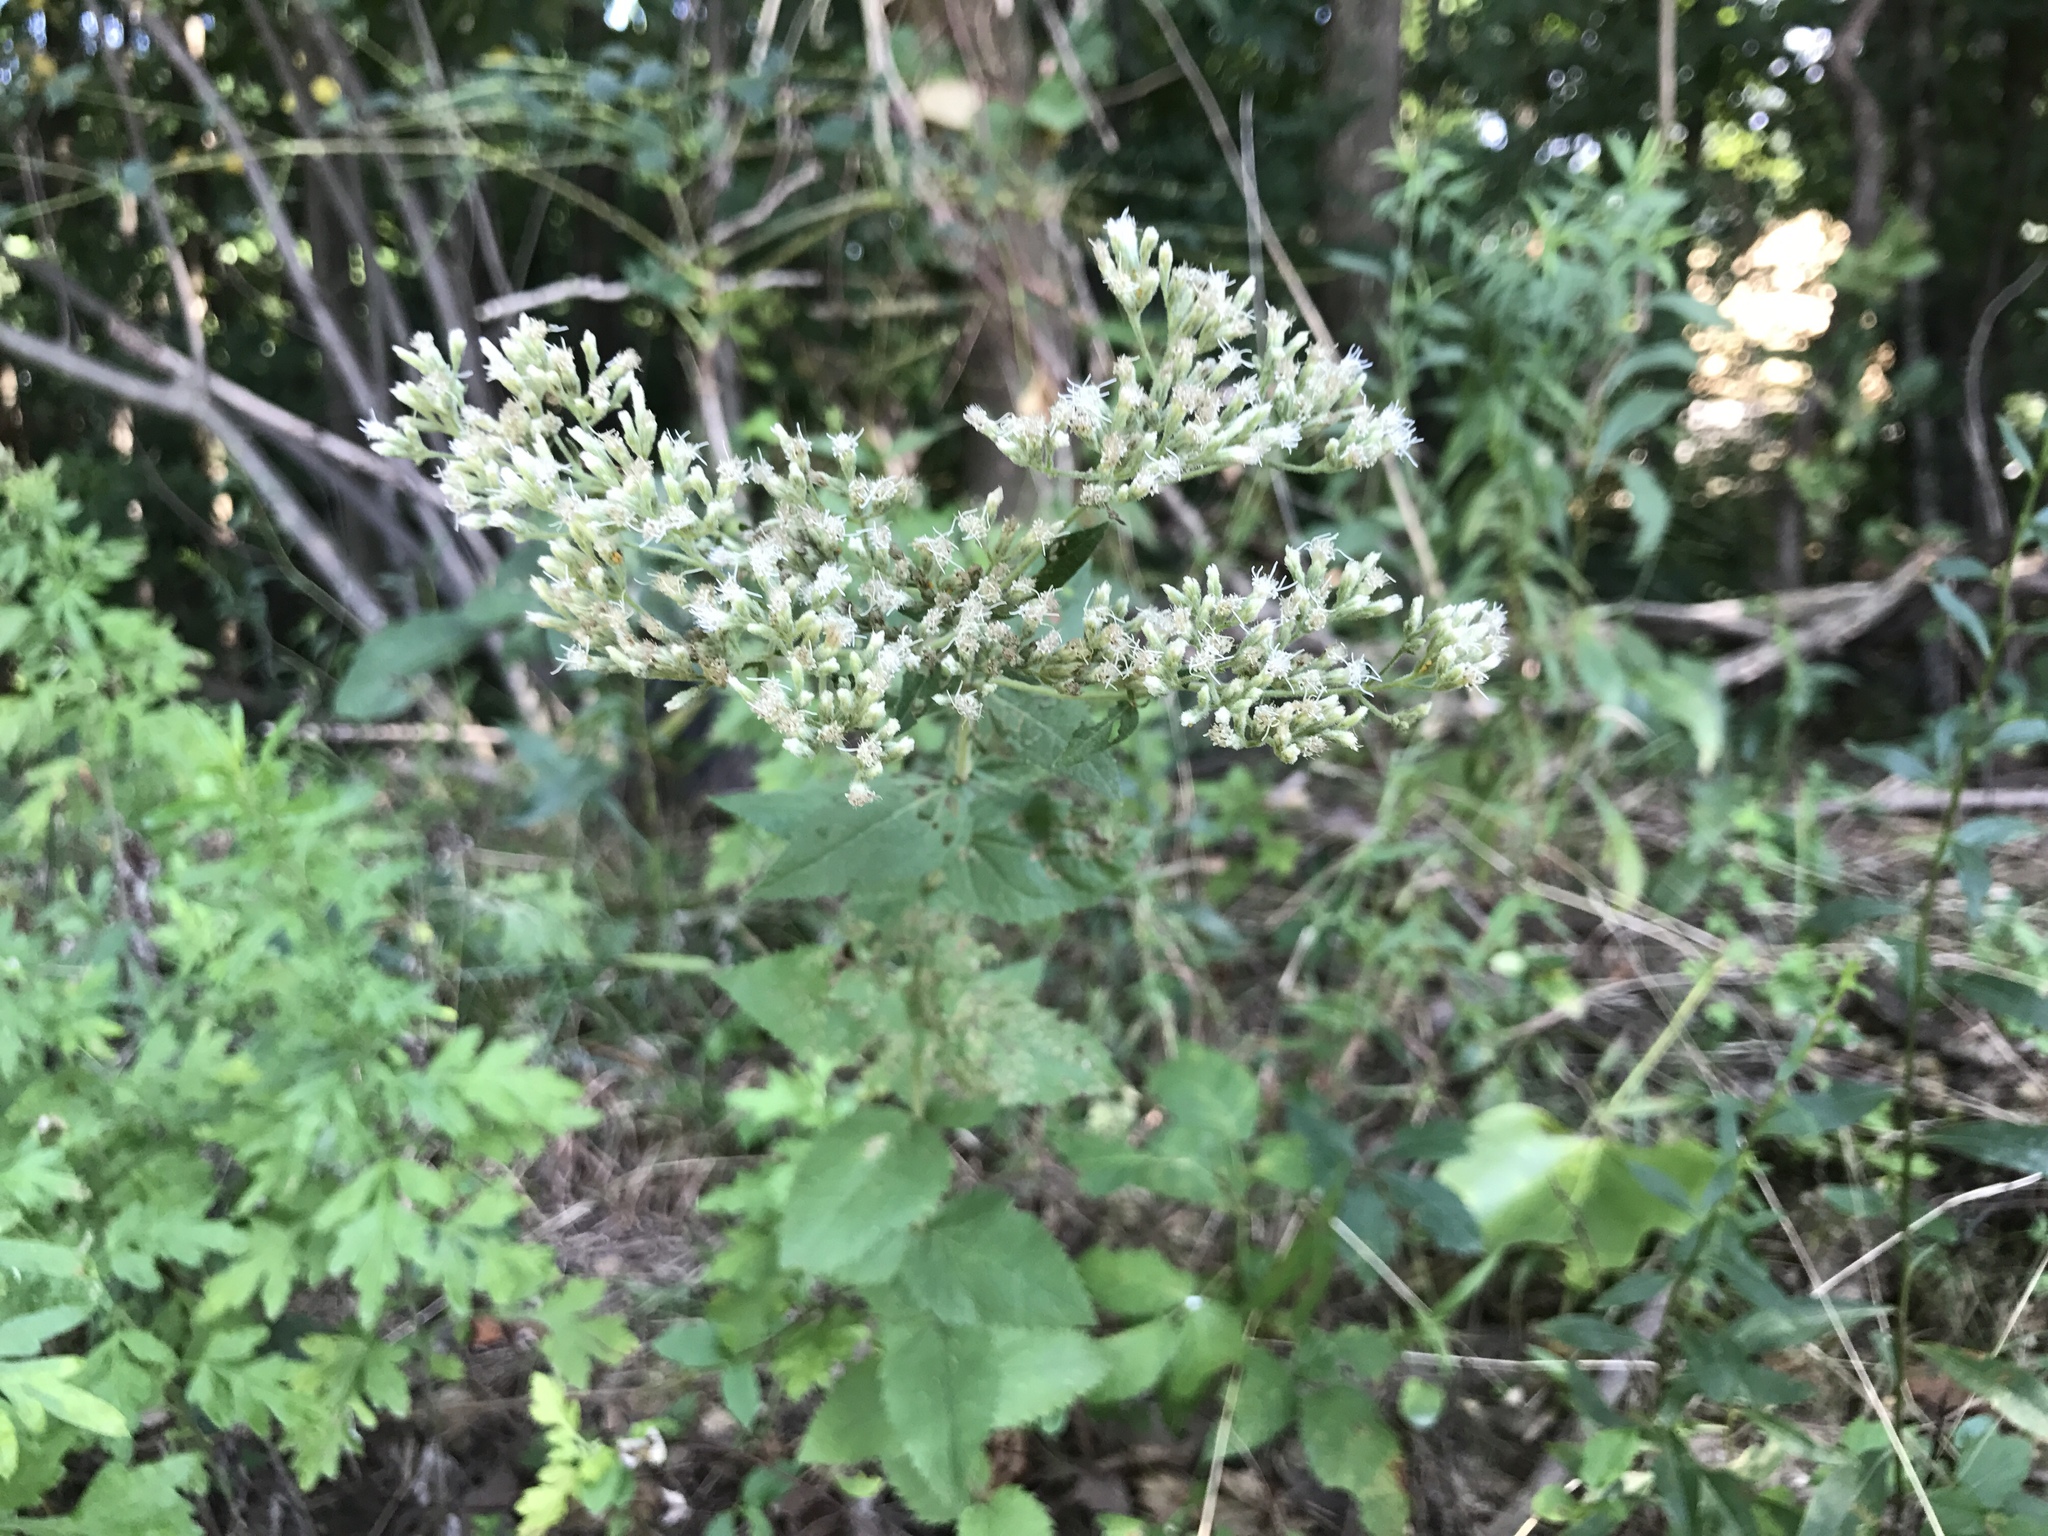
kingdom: Plantae
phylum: Tracheophyta
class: Magnoliopsida
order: Asterales
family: Asteraceae
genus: Eupatorium
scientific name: Eupatorium godfreyanum
